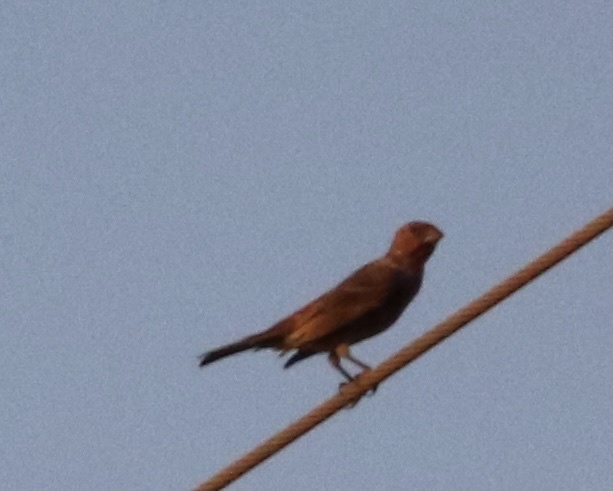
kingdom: Animalia
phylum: Chordata
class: Aves
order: Passeriformes
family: Fringillidae
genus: Haemorhous
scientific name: Haemorhous mexicanus
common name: House finch
